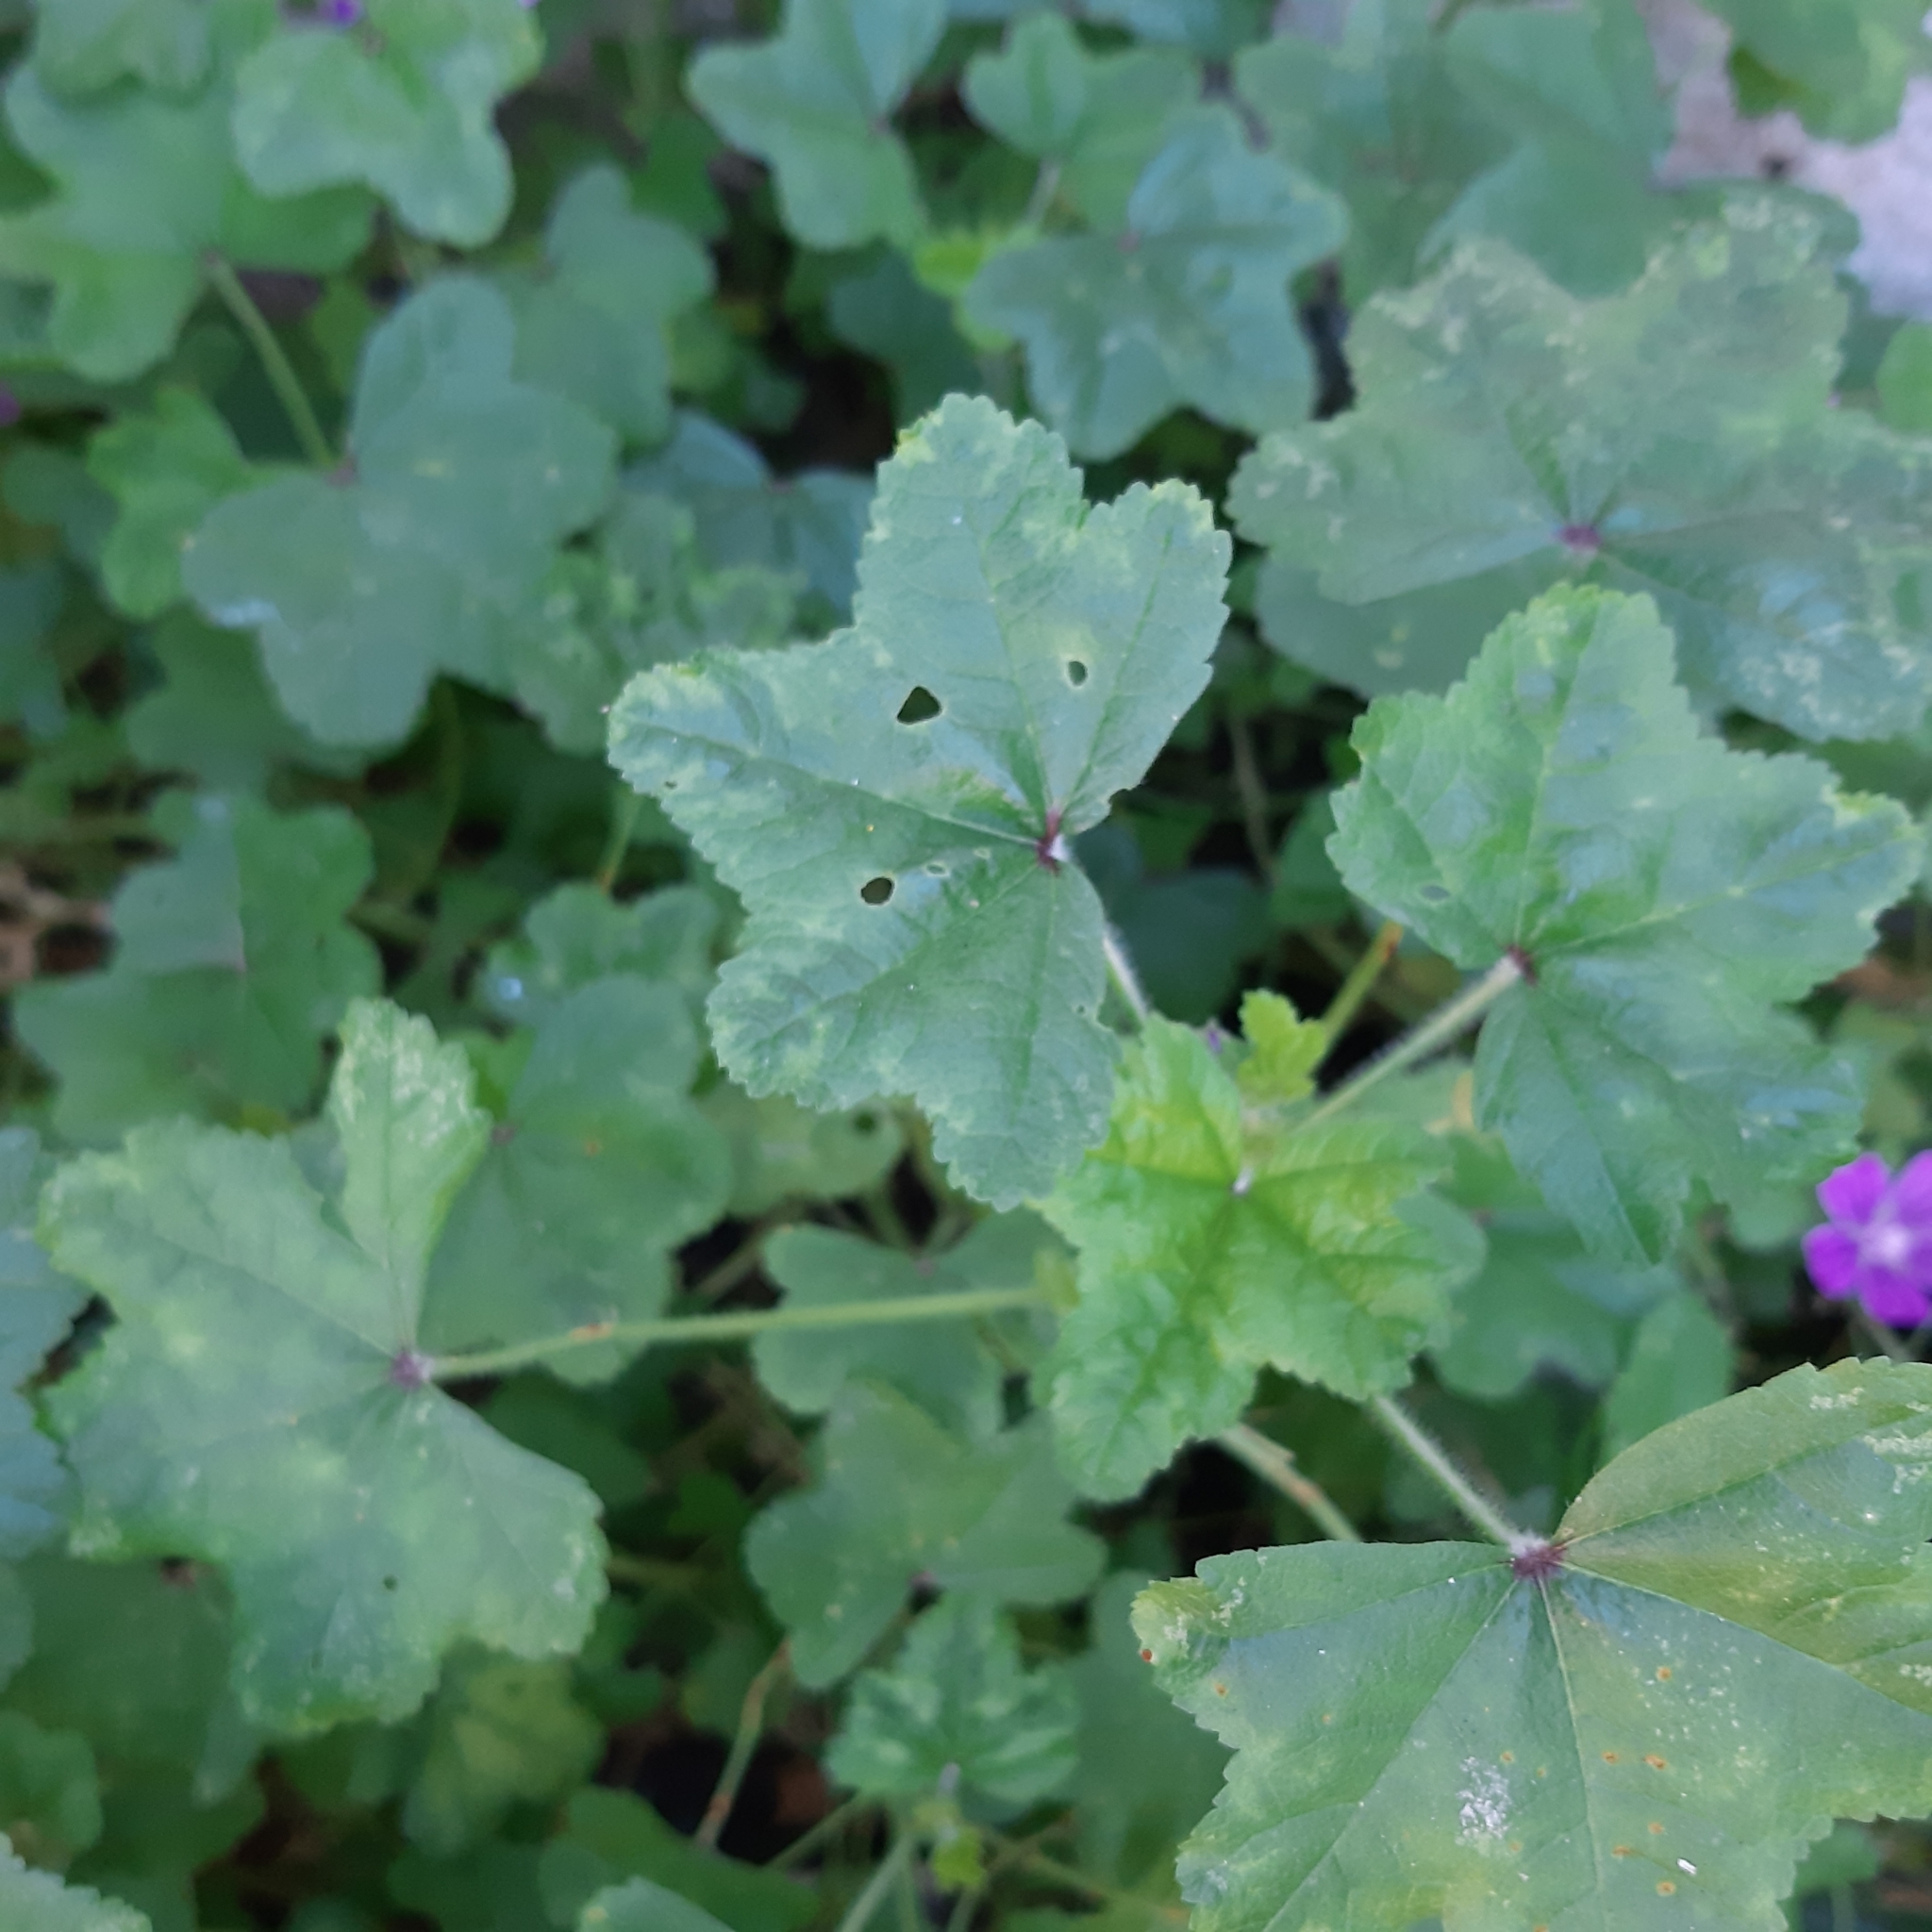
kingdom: Plantae
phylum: Tracheophyta
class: Magnoliopsida
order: Malvales
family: Malvaceae
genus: Malva
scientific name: Malva sylvestris
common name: Common mallow
